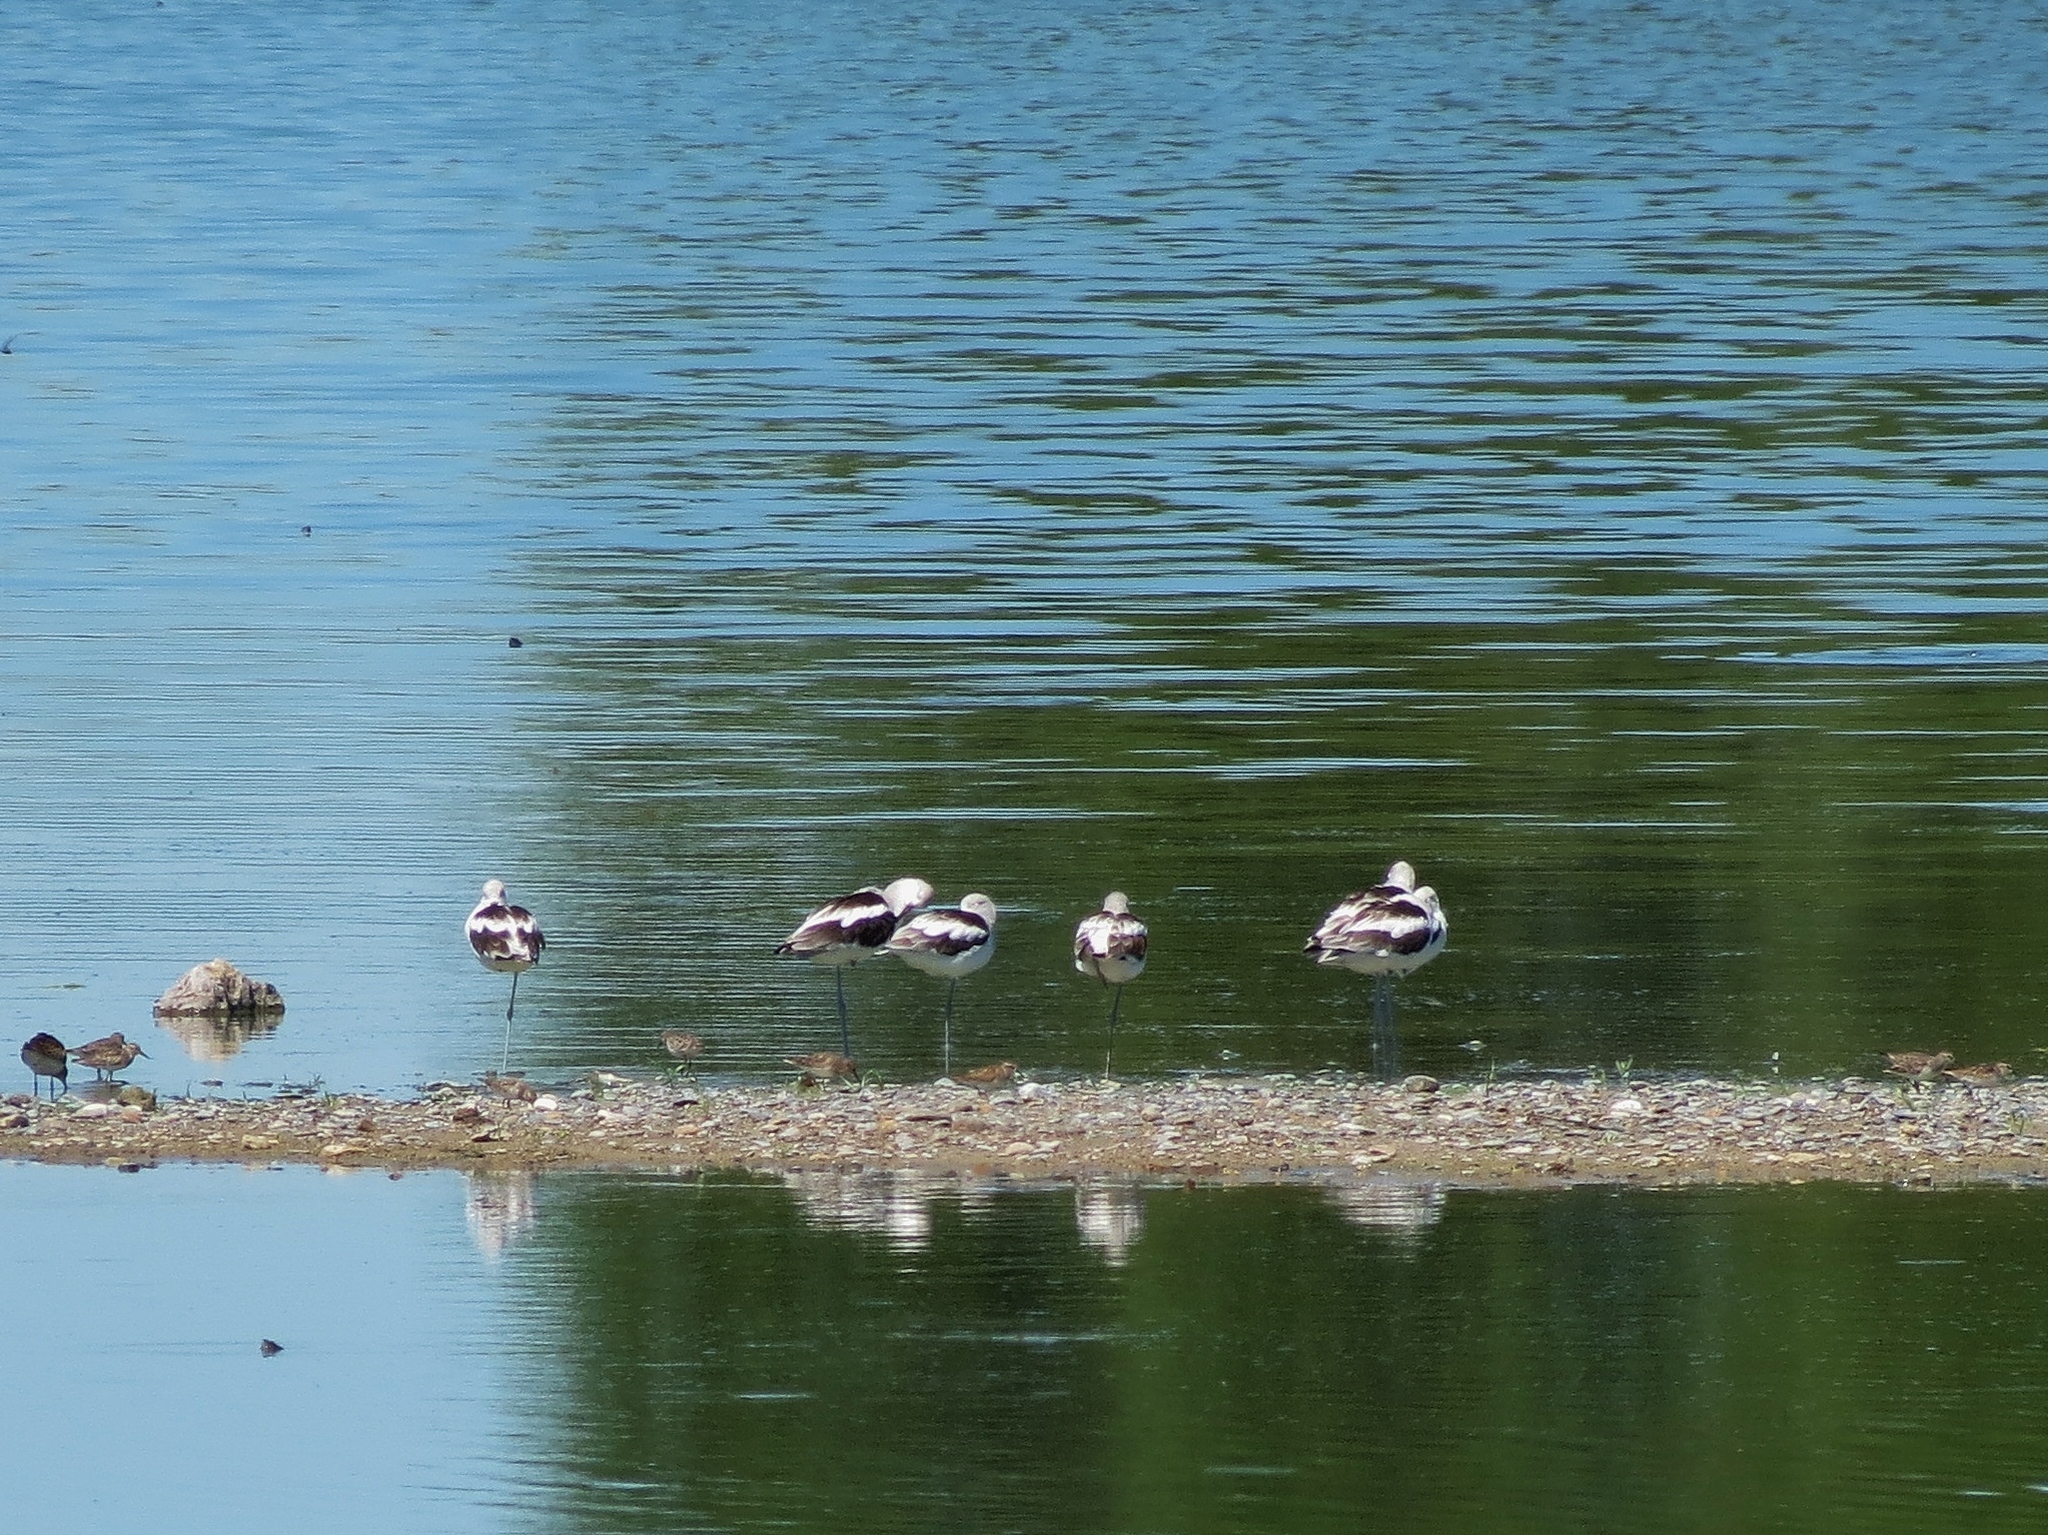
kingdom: Animalia
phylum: Chordata
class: Aves
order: Charadriiformes
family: Recurvirostridae
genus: Recurvirostra
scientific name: Recurvirostra americana
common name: American avocet
